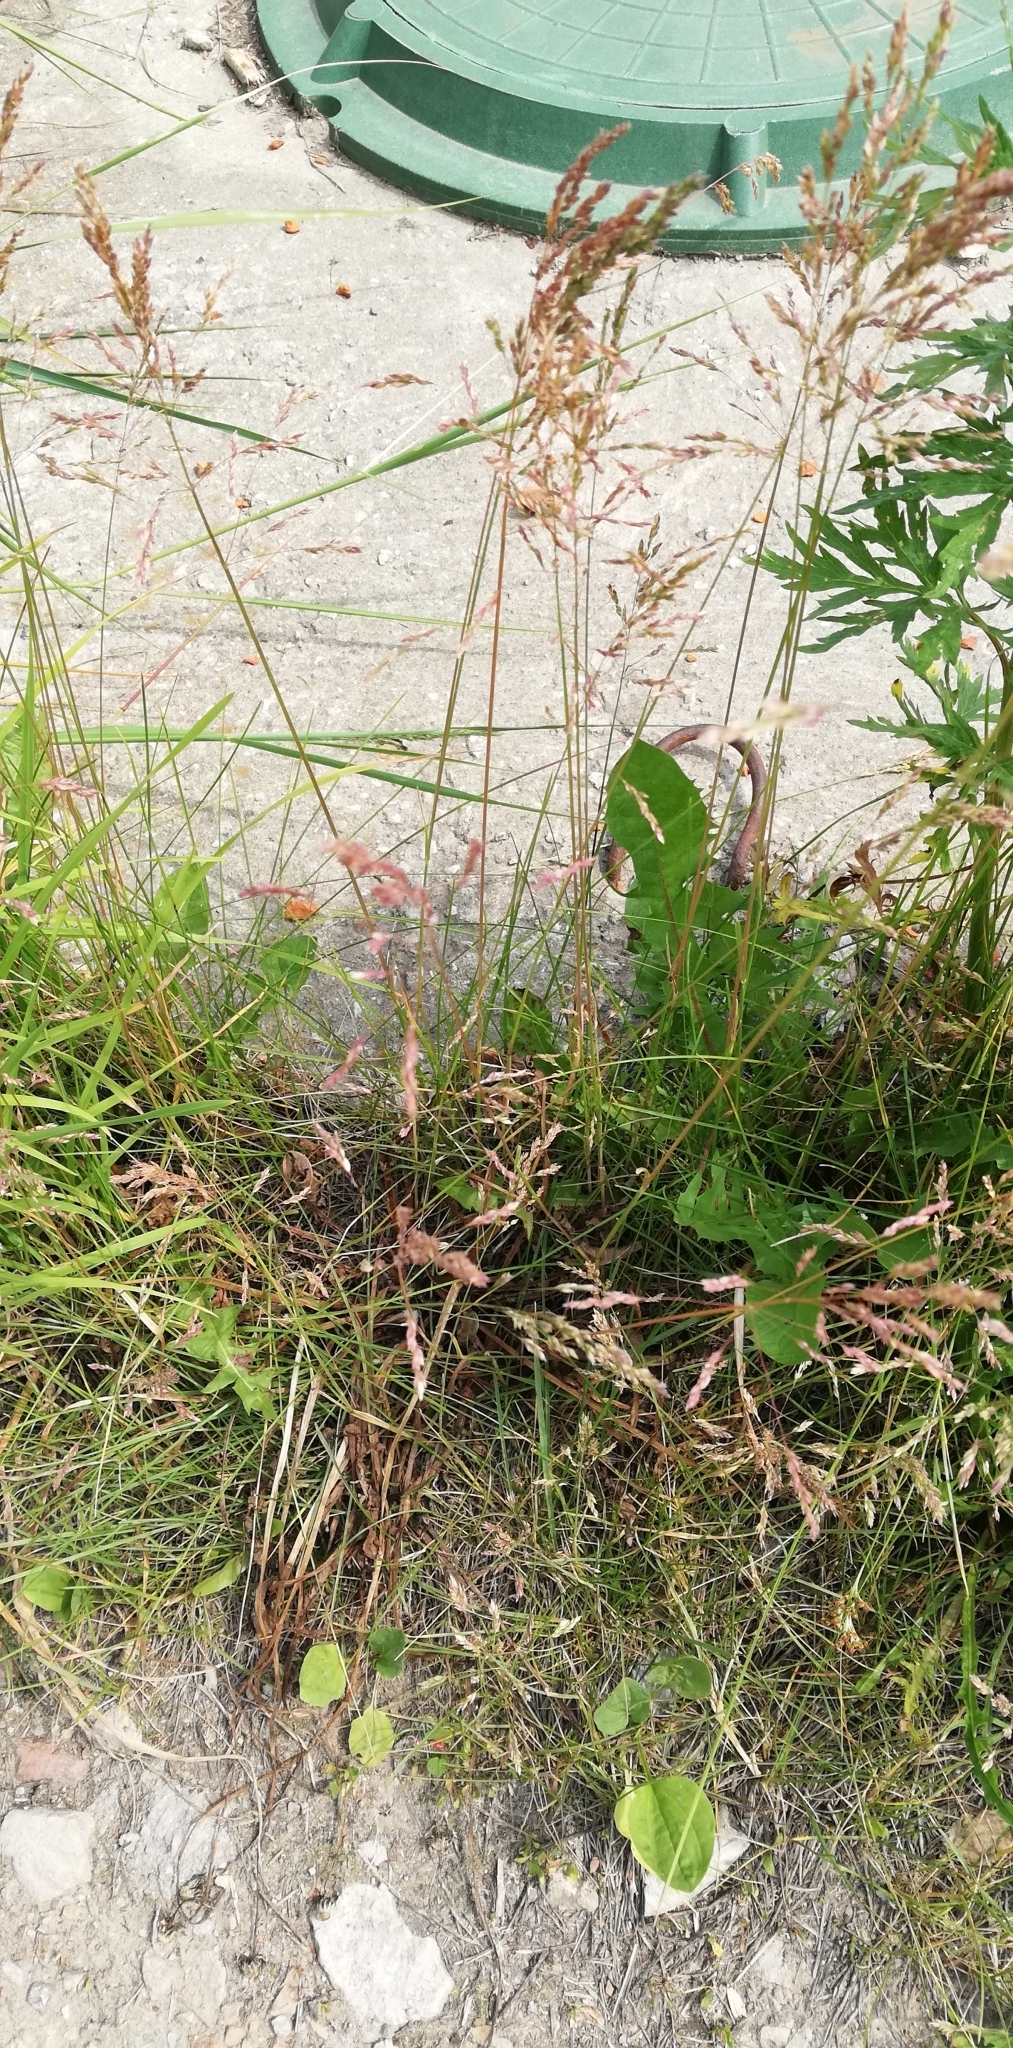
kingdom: Plantae
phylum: Tracheophyta
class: Liliopsida
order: Poales
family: Poaceae
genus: Poa
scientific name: Poa angustifolia
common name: Narrow-leaved meadow-grass
